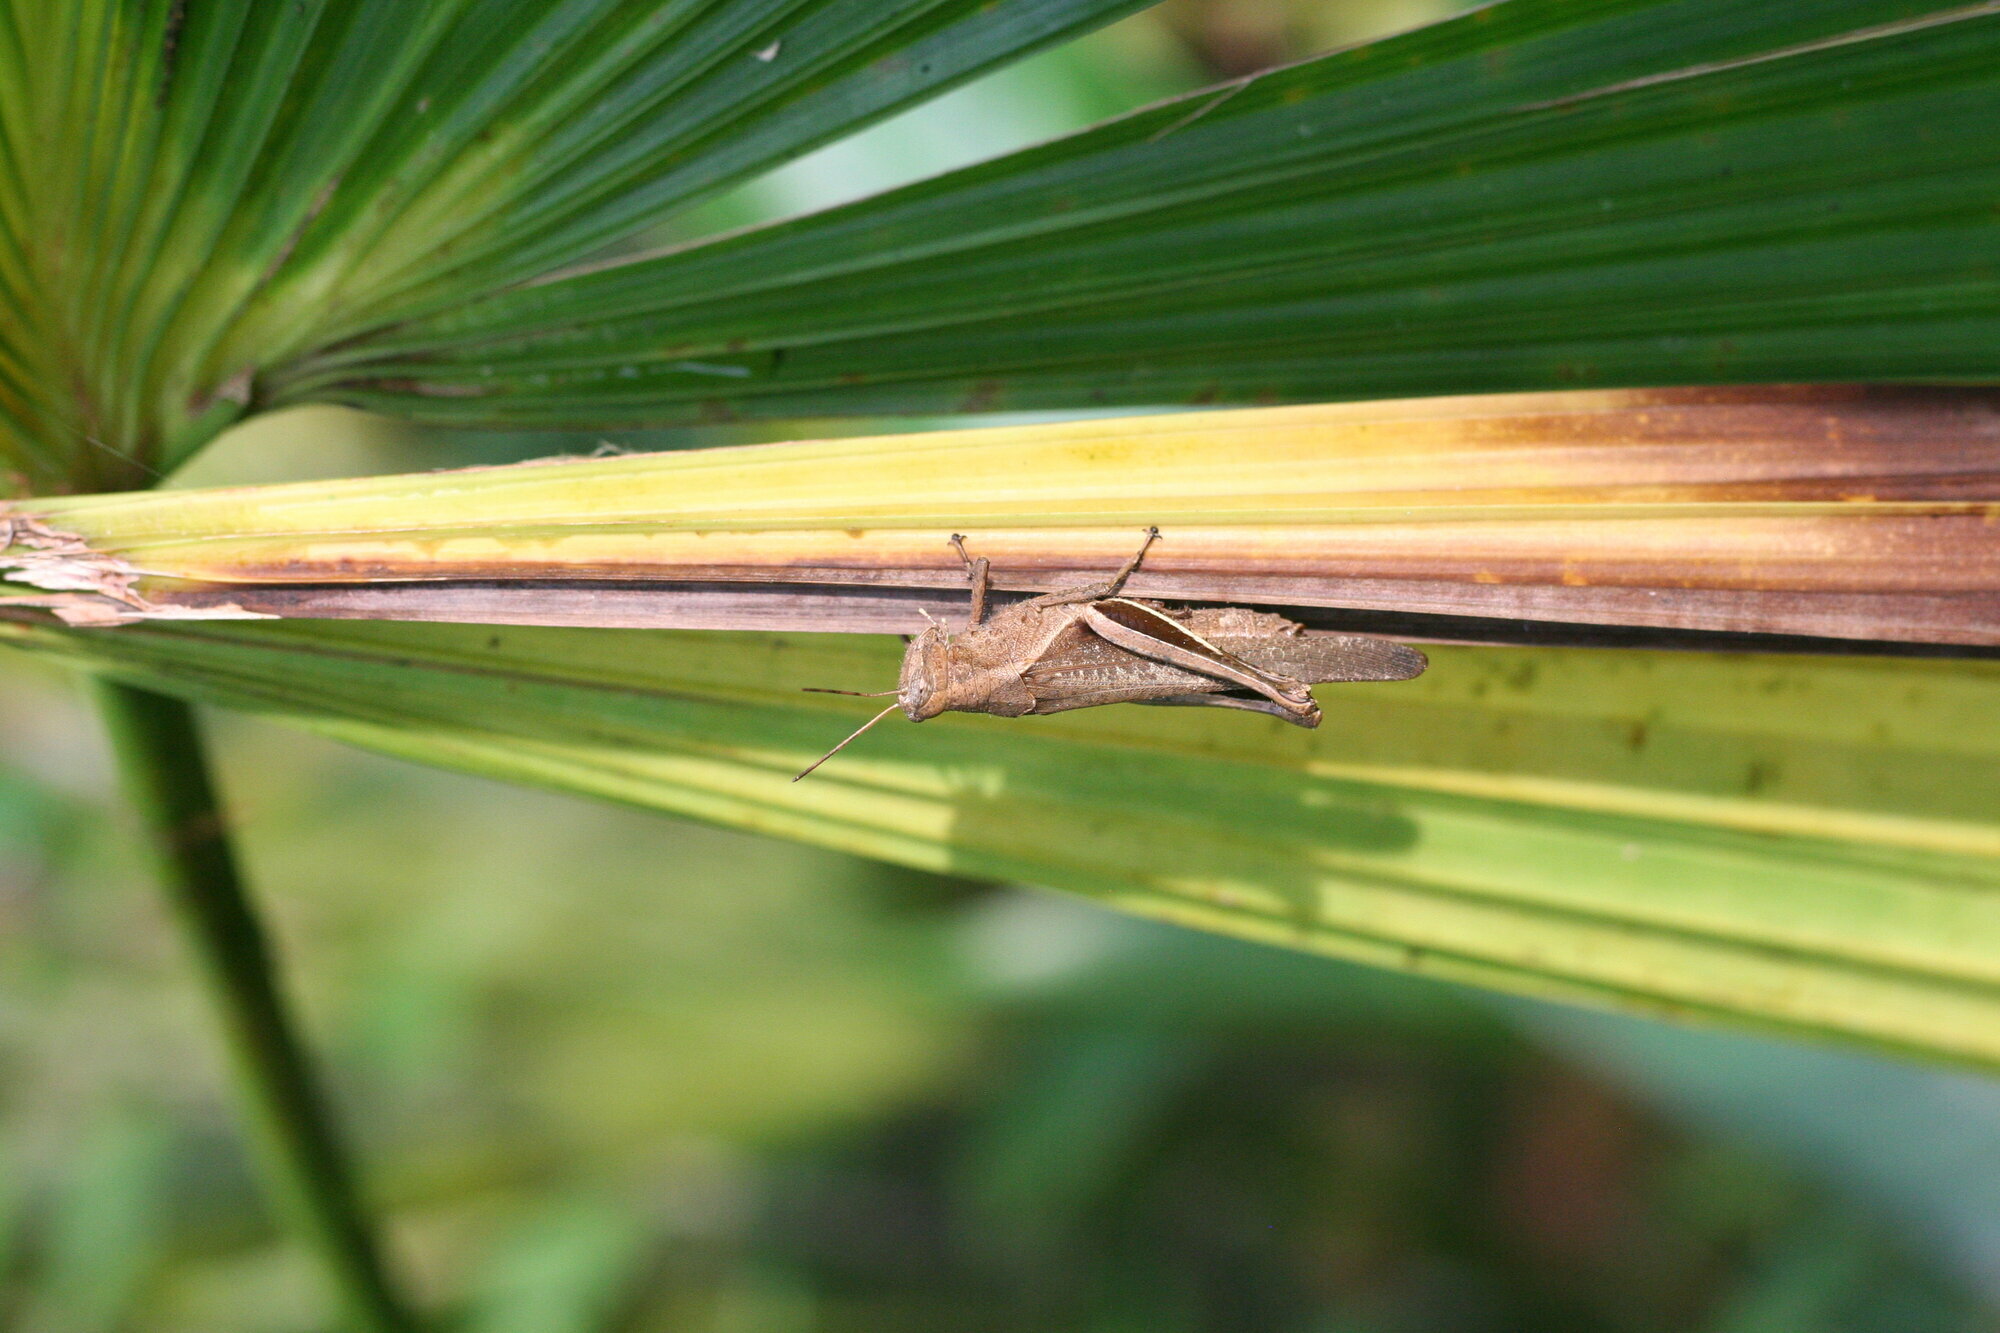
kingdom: Animalia
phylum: Arthropoda
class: Insecta
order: Orthoptera
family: Acrididae
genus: Abracris
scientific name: Abracris flavolineata
